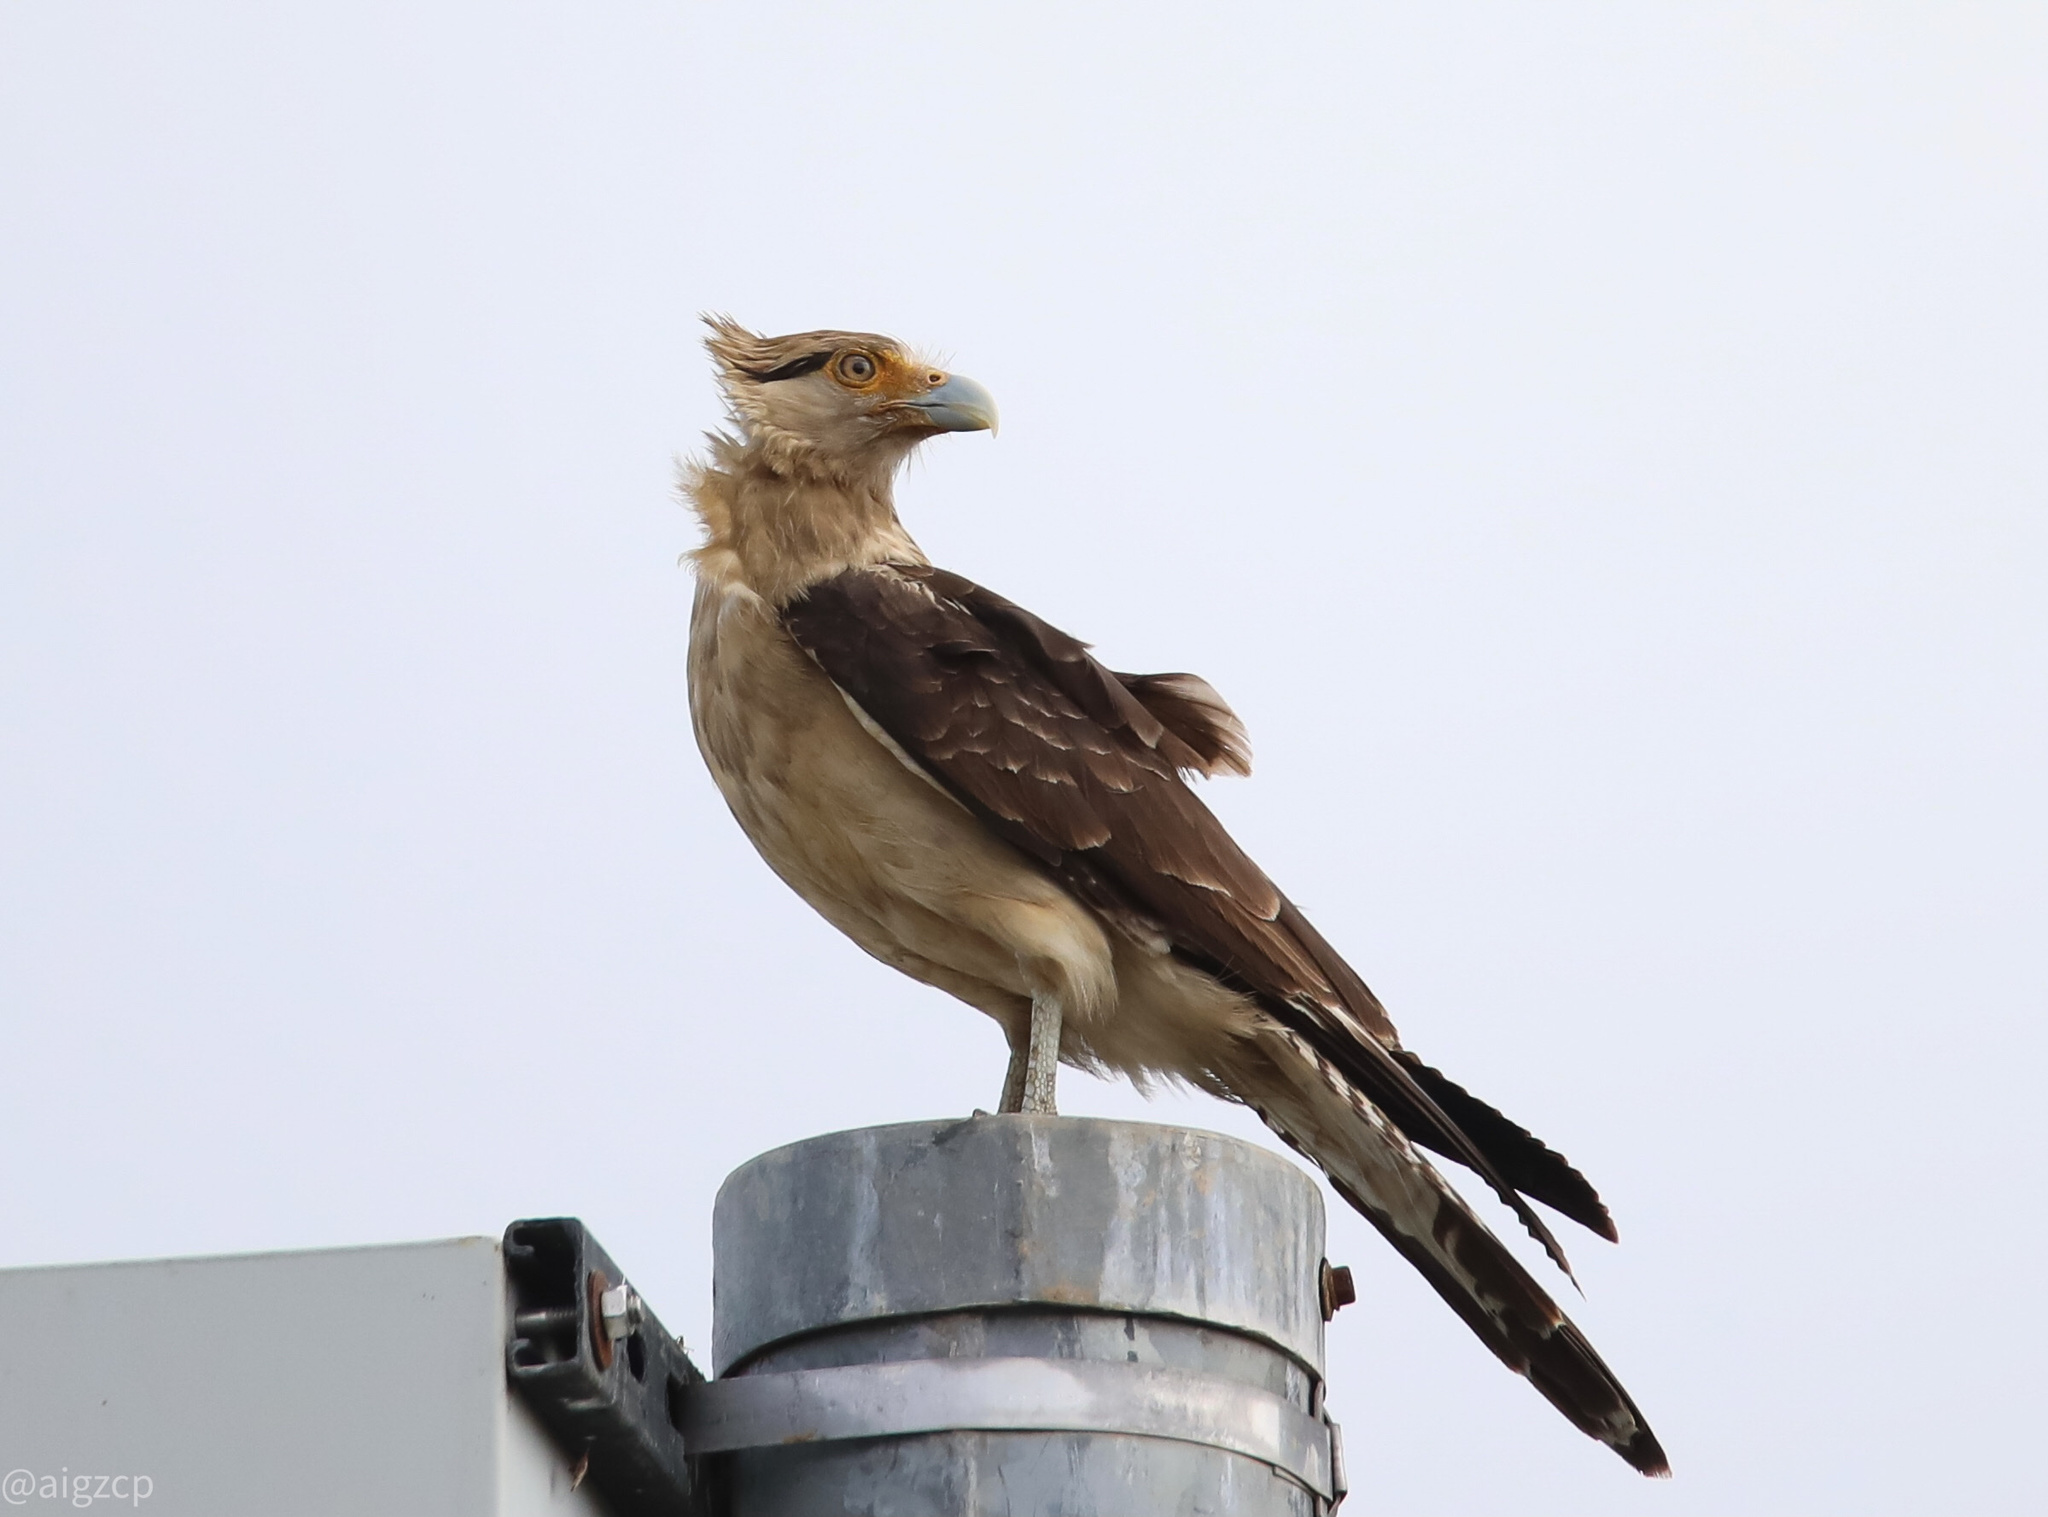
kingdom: Animalia
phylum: Chordata
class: Aves
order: Falconiformes
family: Falconidae
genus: Daptrius
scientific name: Daptrius
